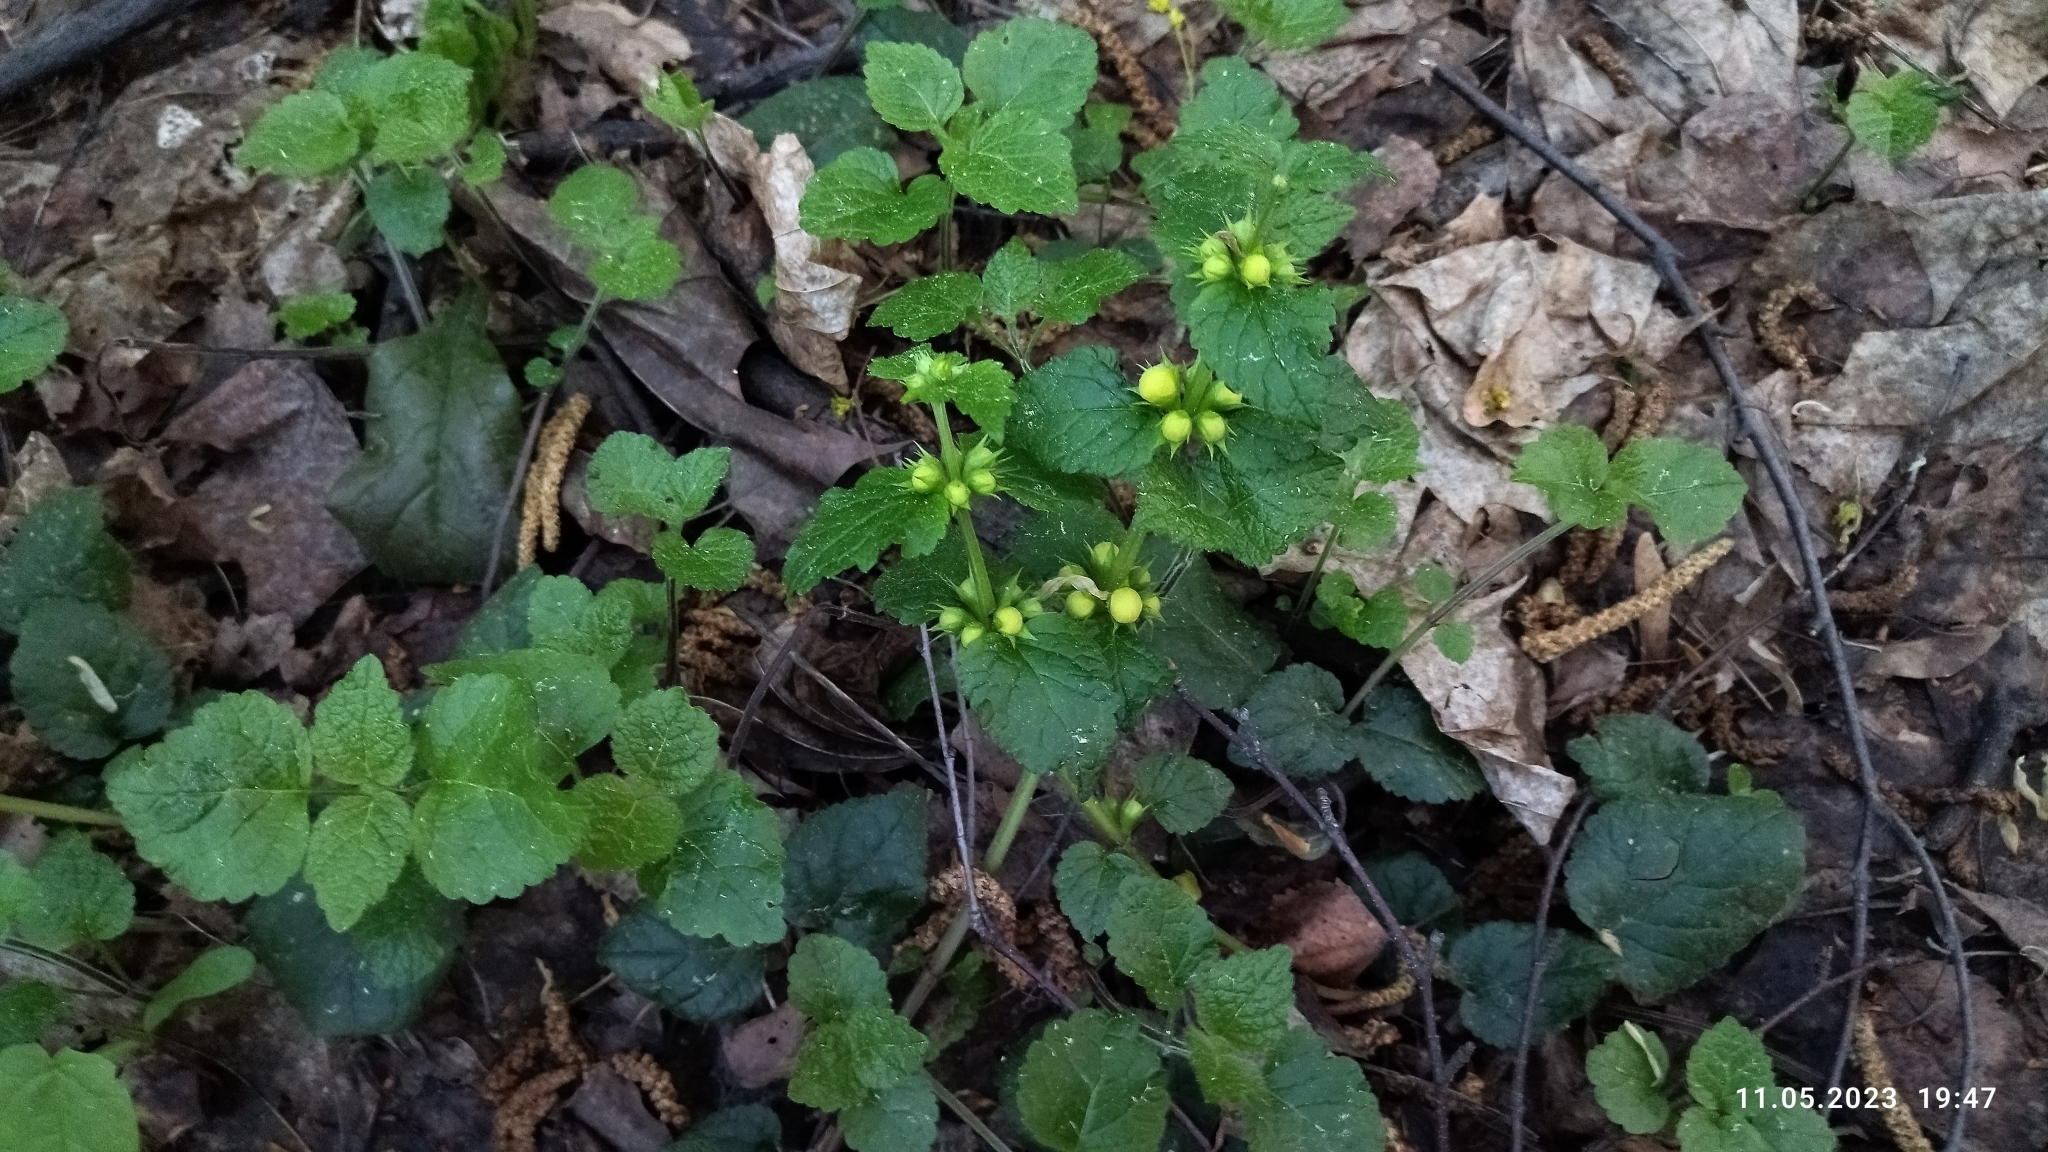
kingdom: Plantae
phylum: Tracheophyta
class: Magnoliopsida
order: Lamiales
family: Lamiaceae
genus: Lamium
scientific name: Lamium galeobdolon
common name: Yellow archangel
